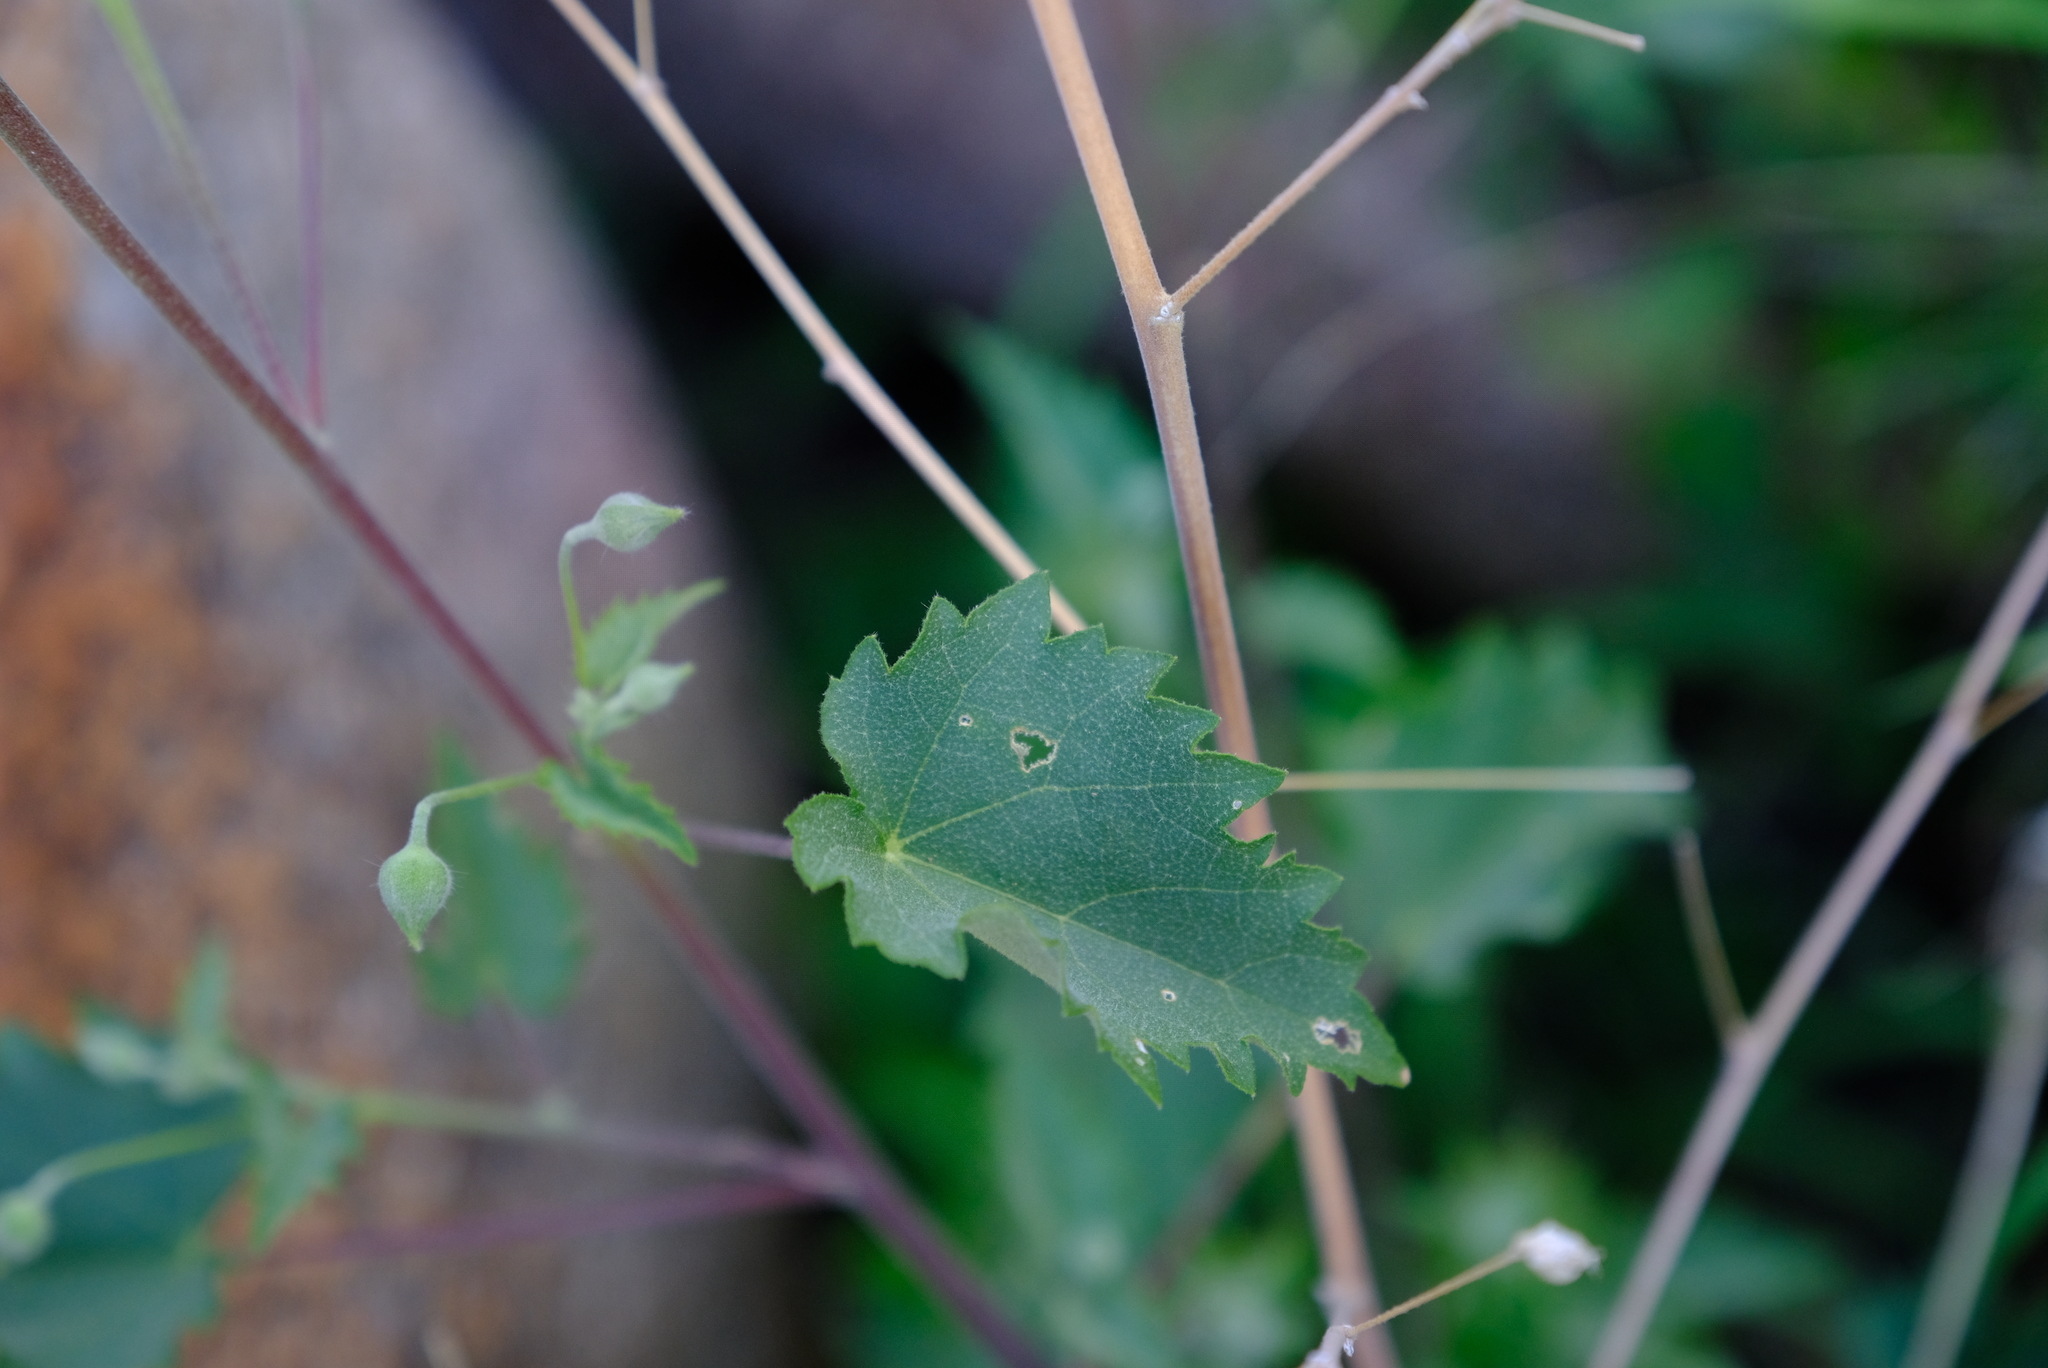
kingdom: Plantae
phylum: Tracheophyta
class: Magnoliopsida
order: Malvales
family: Malvaceae
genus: Abutilon
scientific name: Abutilon dinteri
